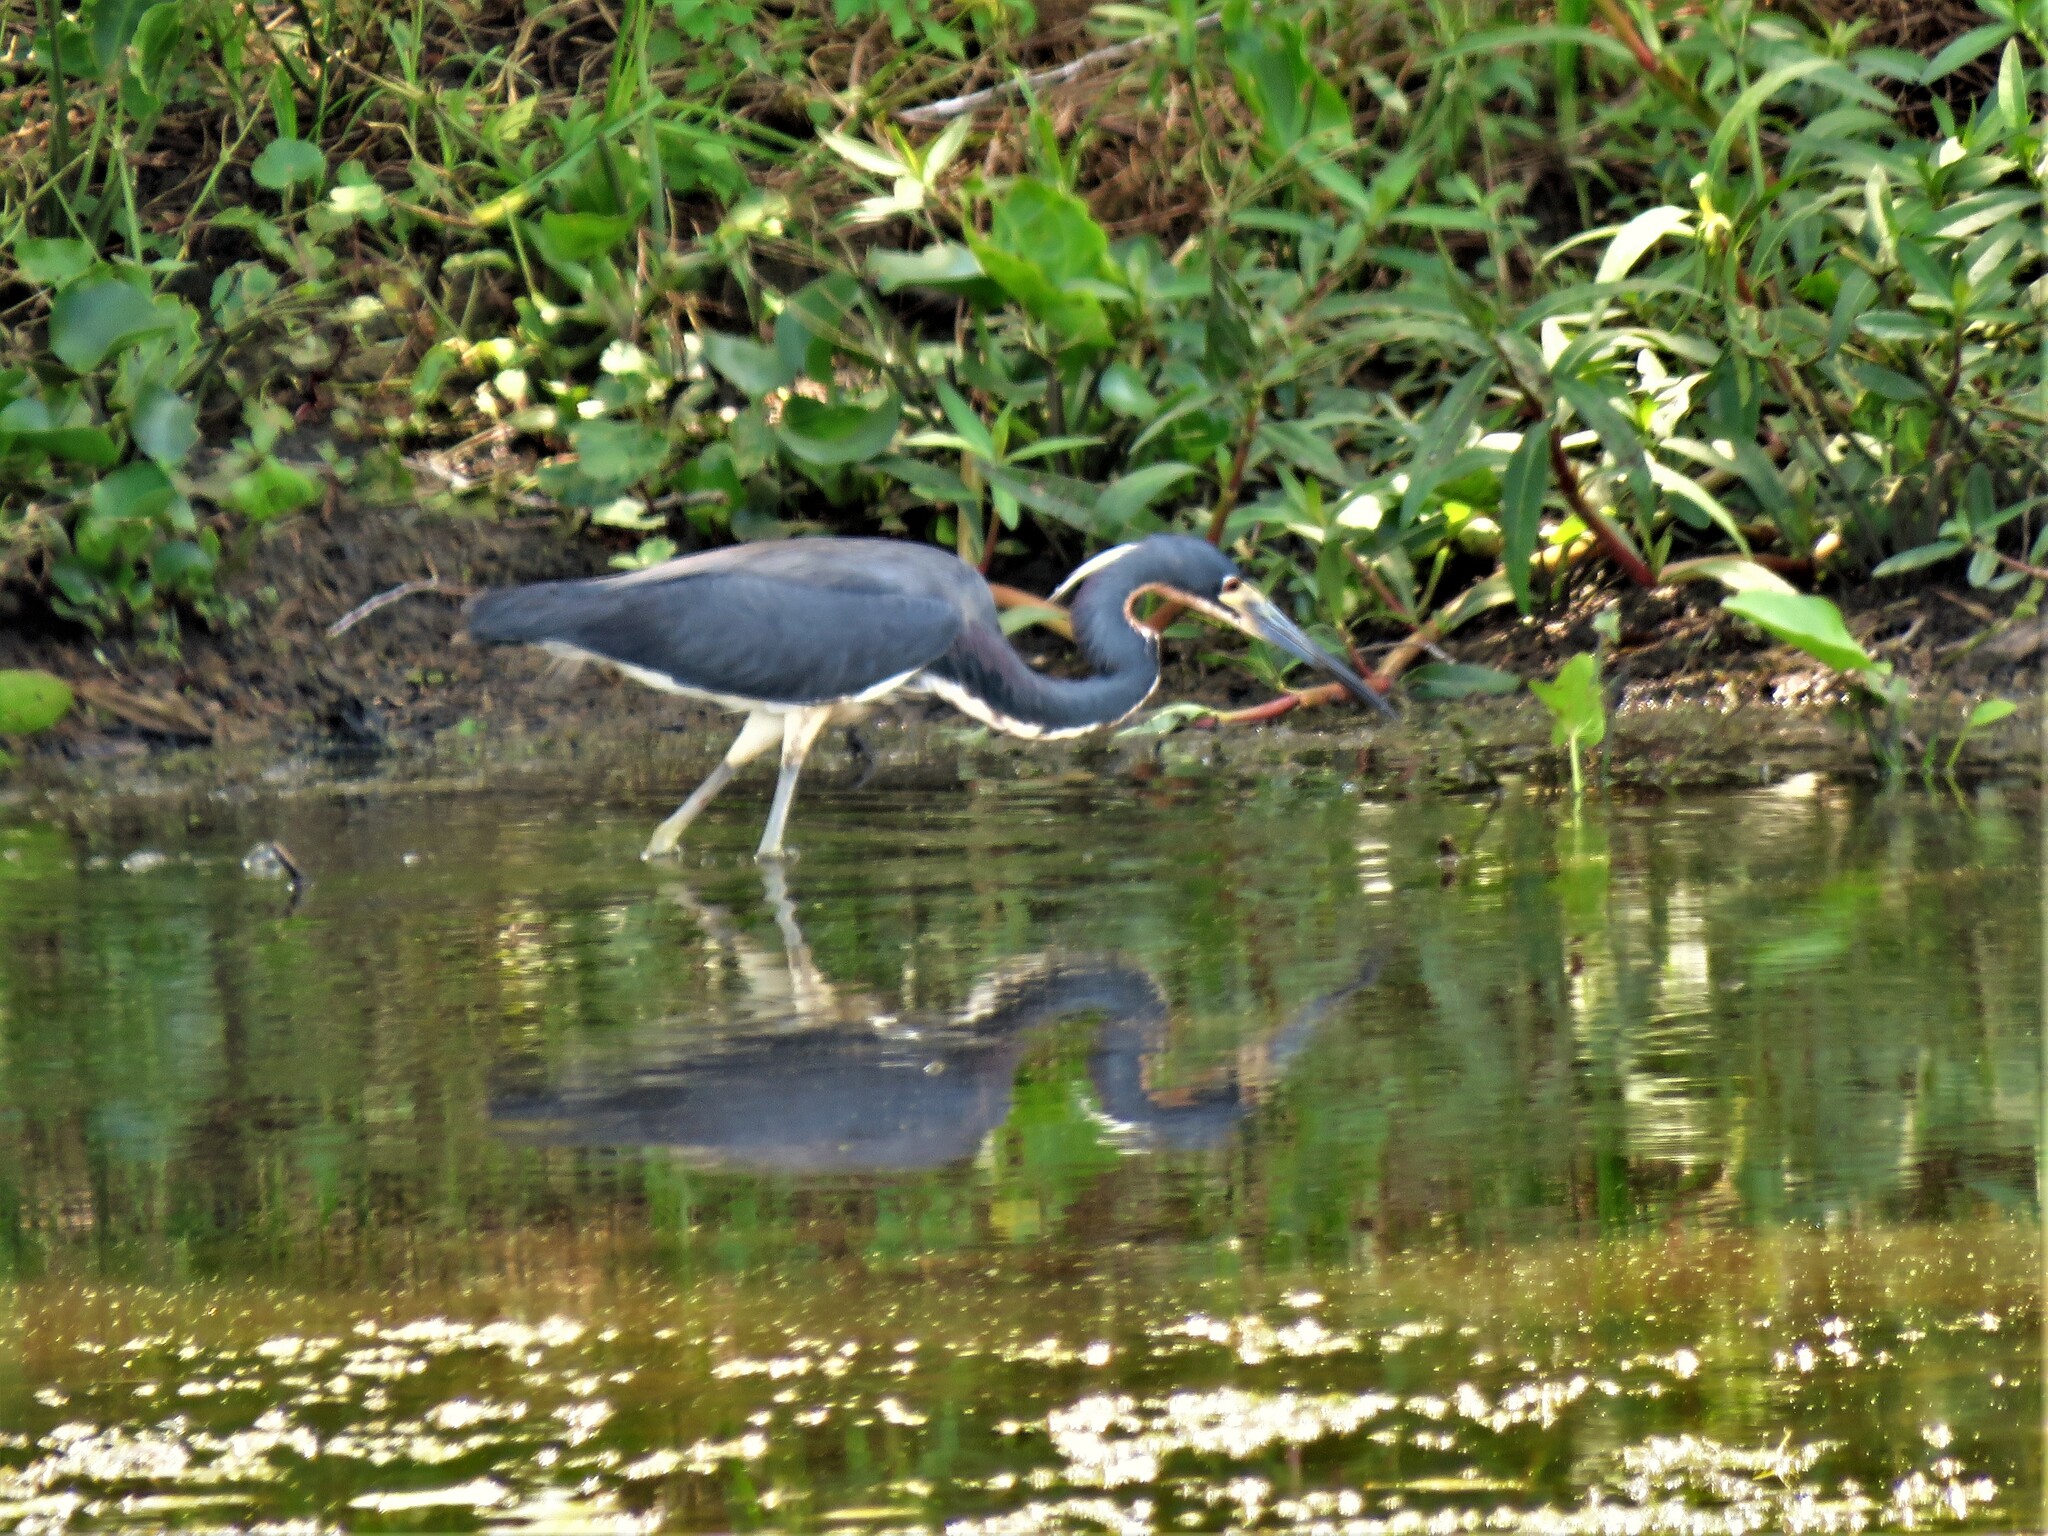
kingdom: Animalia
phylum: Chordata
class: Aves
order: Pelecaniformes
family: Ardeidae
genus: Egretta
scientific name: Egretta tricolor
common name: Tricolored heron
